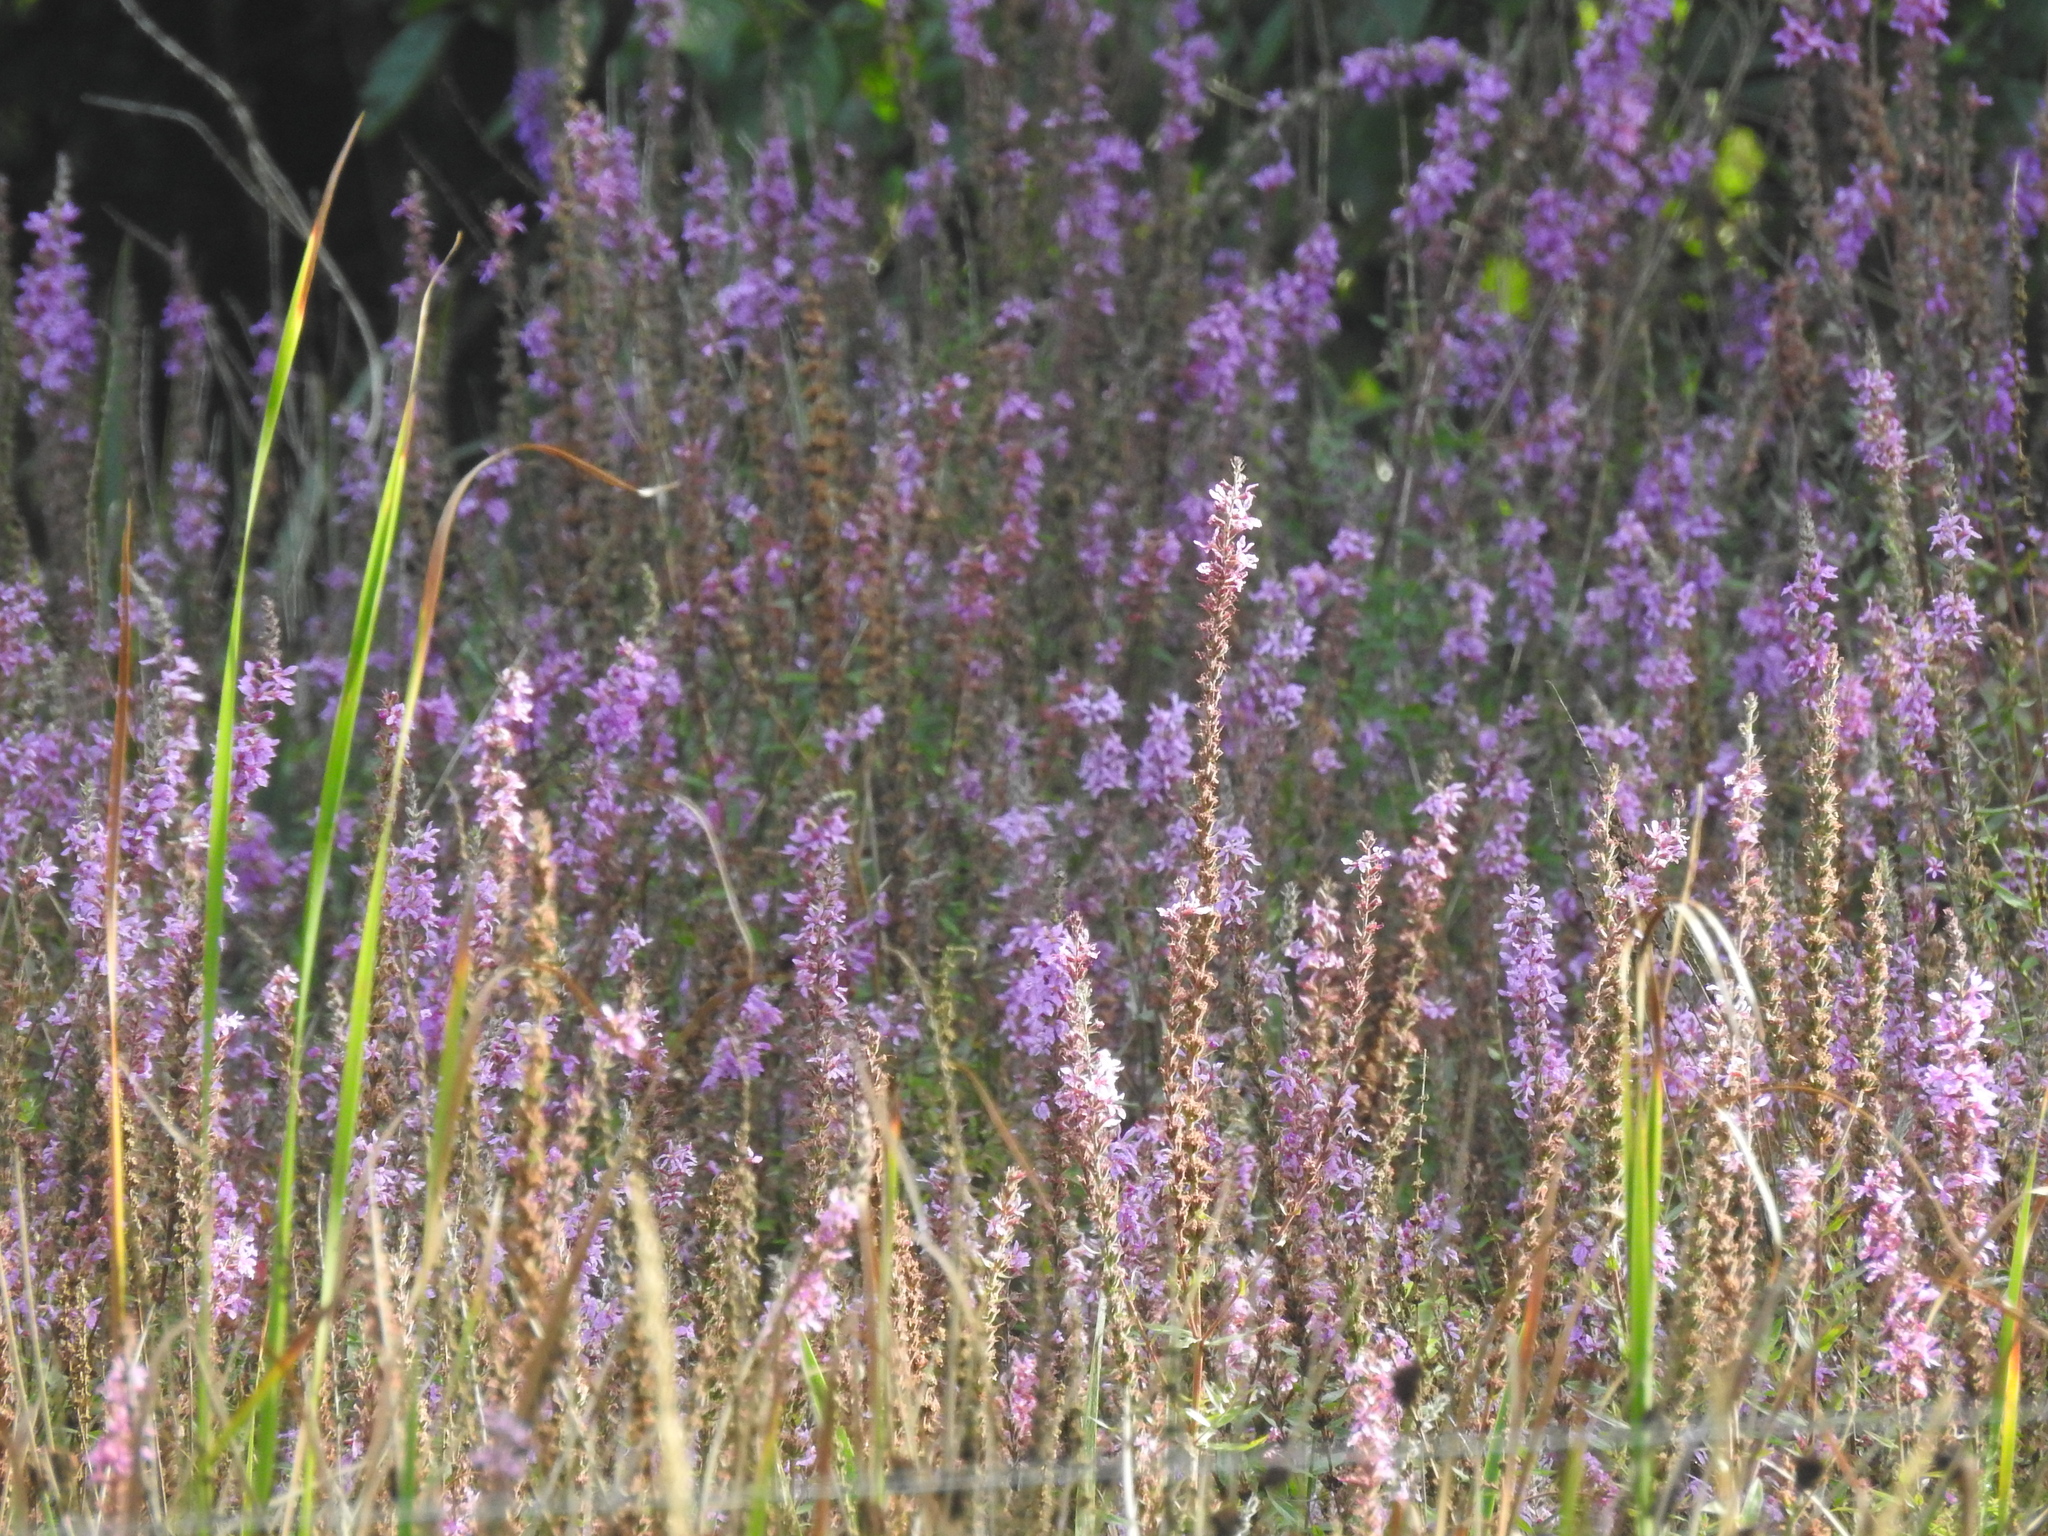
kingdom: Plantae
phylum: Tracheophyta
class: Magnoliopsida
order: Myrtales
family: Lythraceae
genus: Lythrum
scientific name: Lythrum salicaria
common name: Purple loosestrife
